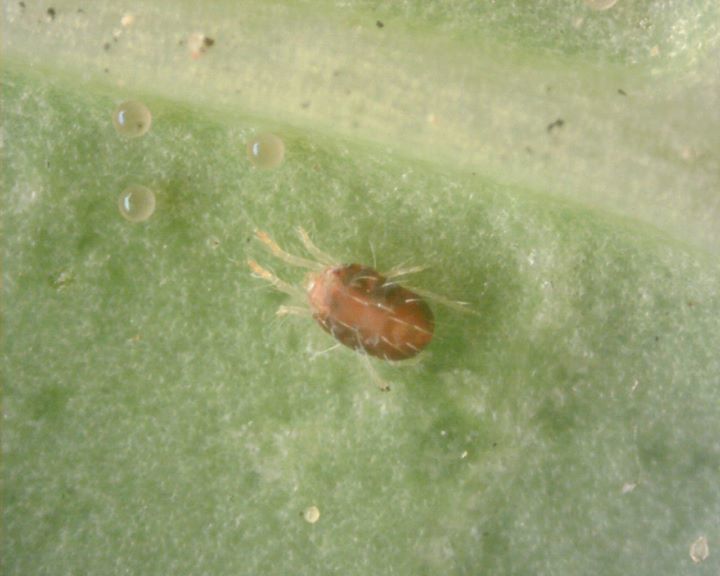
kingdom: Animalia
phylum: Arthropoda
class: Arachnida
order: Trombidiformes
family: Tetranychidae
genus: Tetranychus
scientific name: Tetranychus urticae
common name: Carmine spider mite
